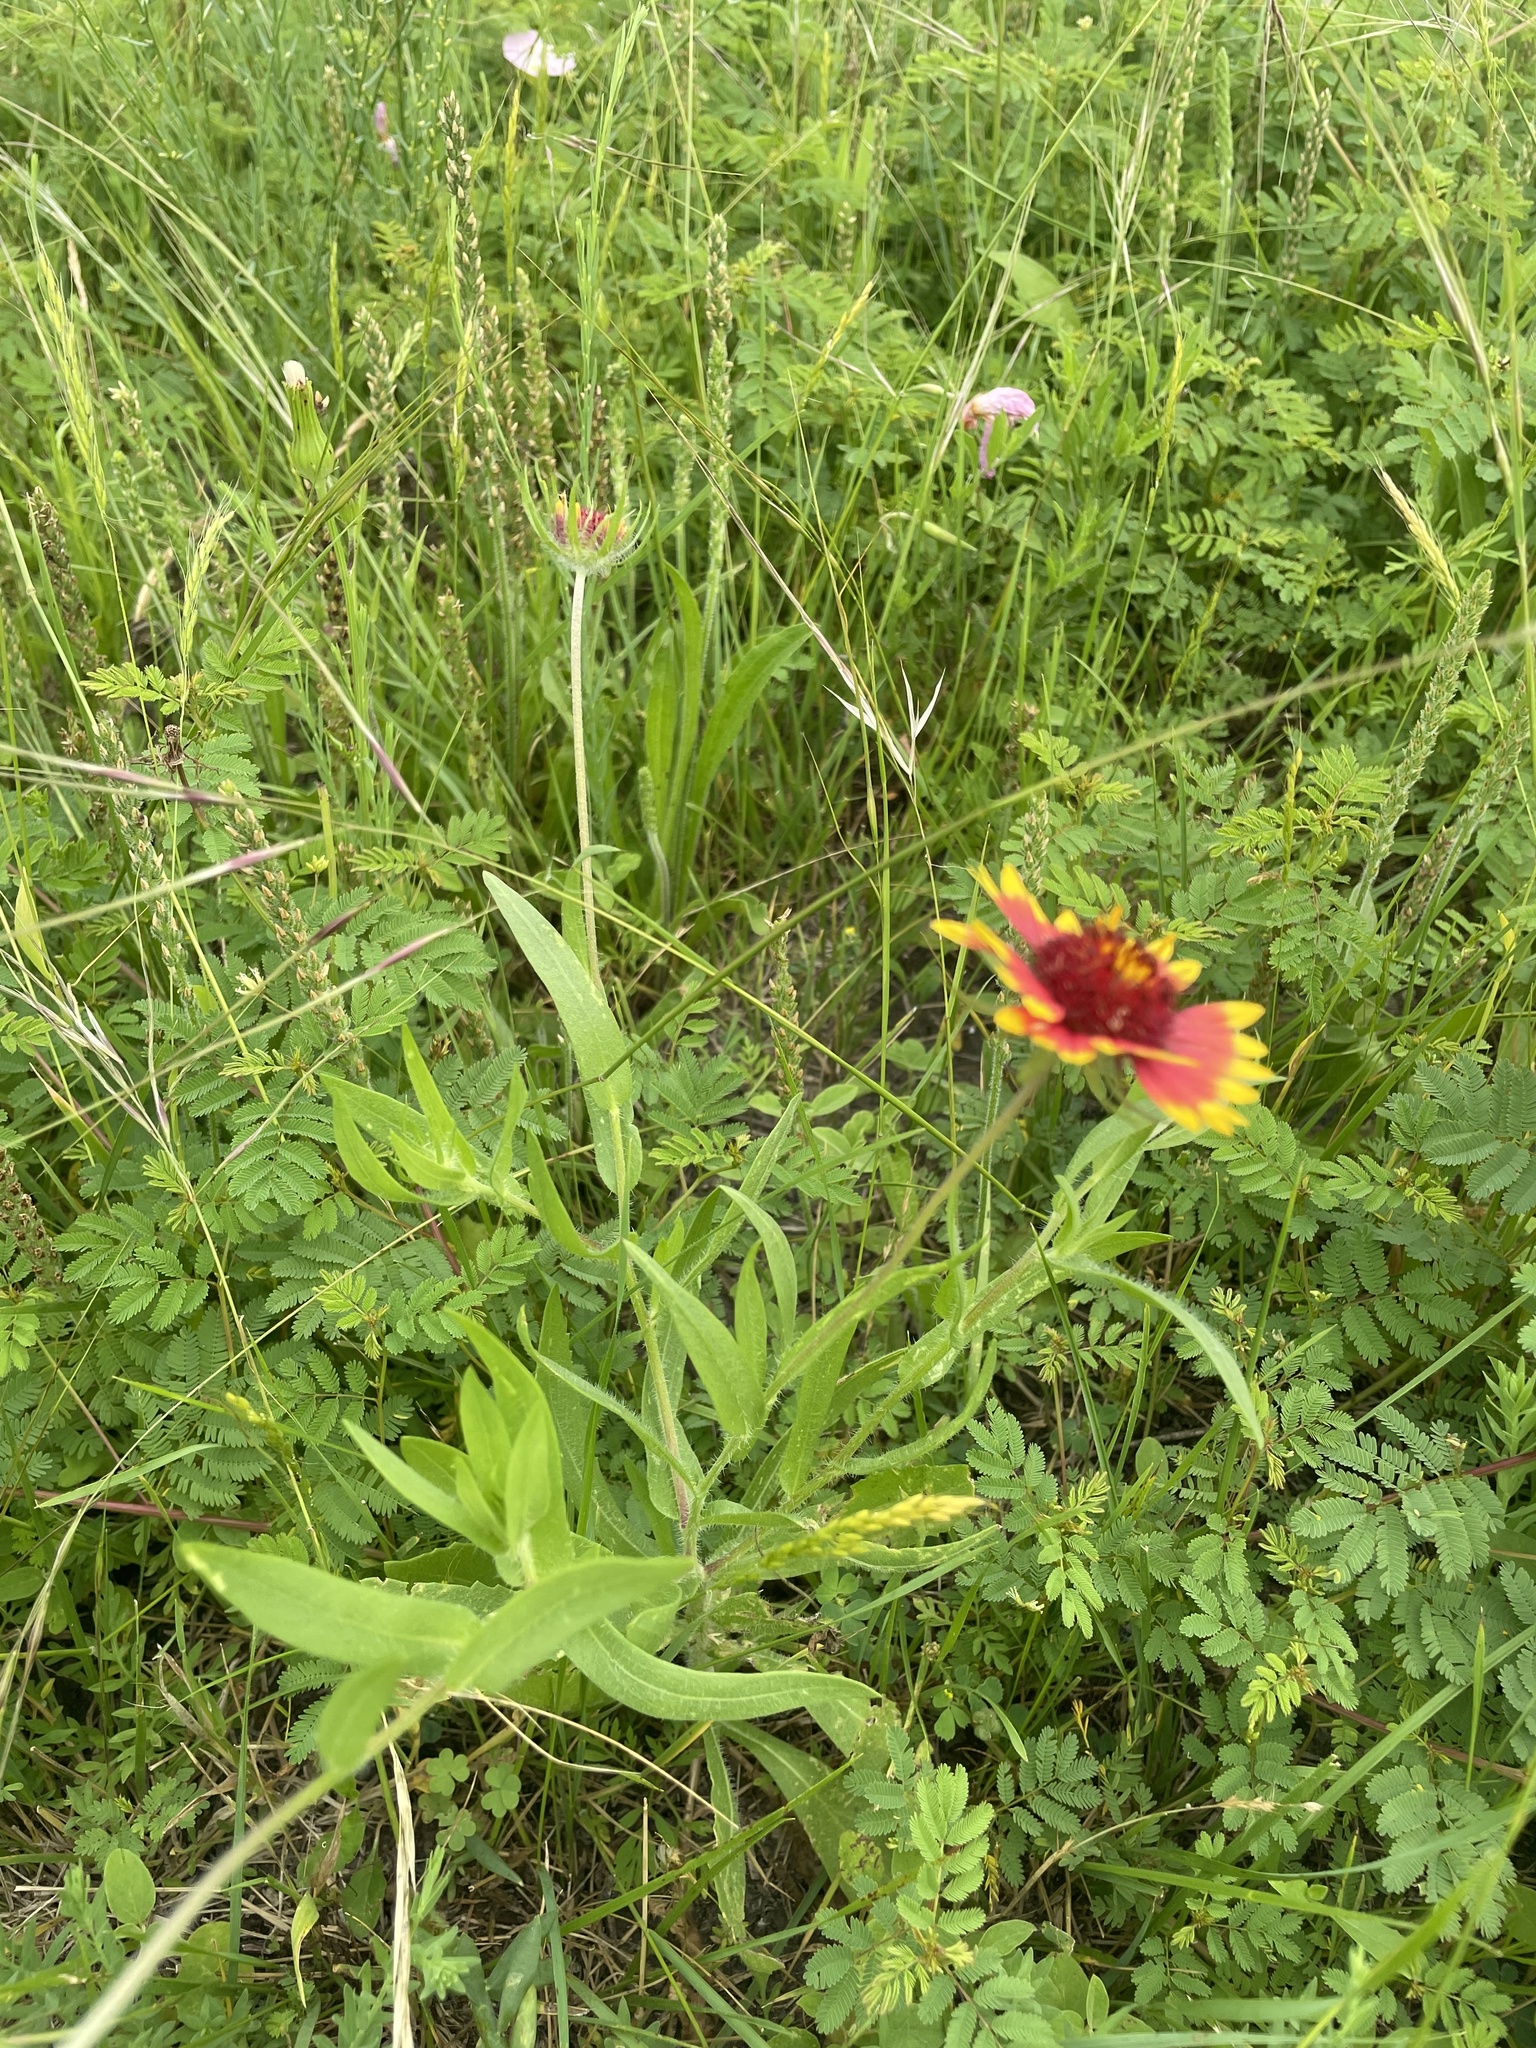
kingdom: Plantae
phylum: Tracheophyta
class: Magnoliopsida
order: Asterales
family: Asteraceae
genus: Gaillardia
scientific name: Gaillardia pulchella
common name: Firewheel
